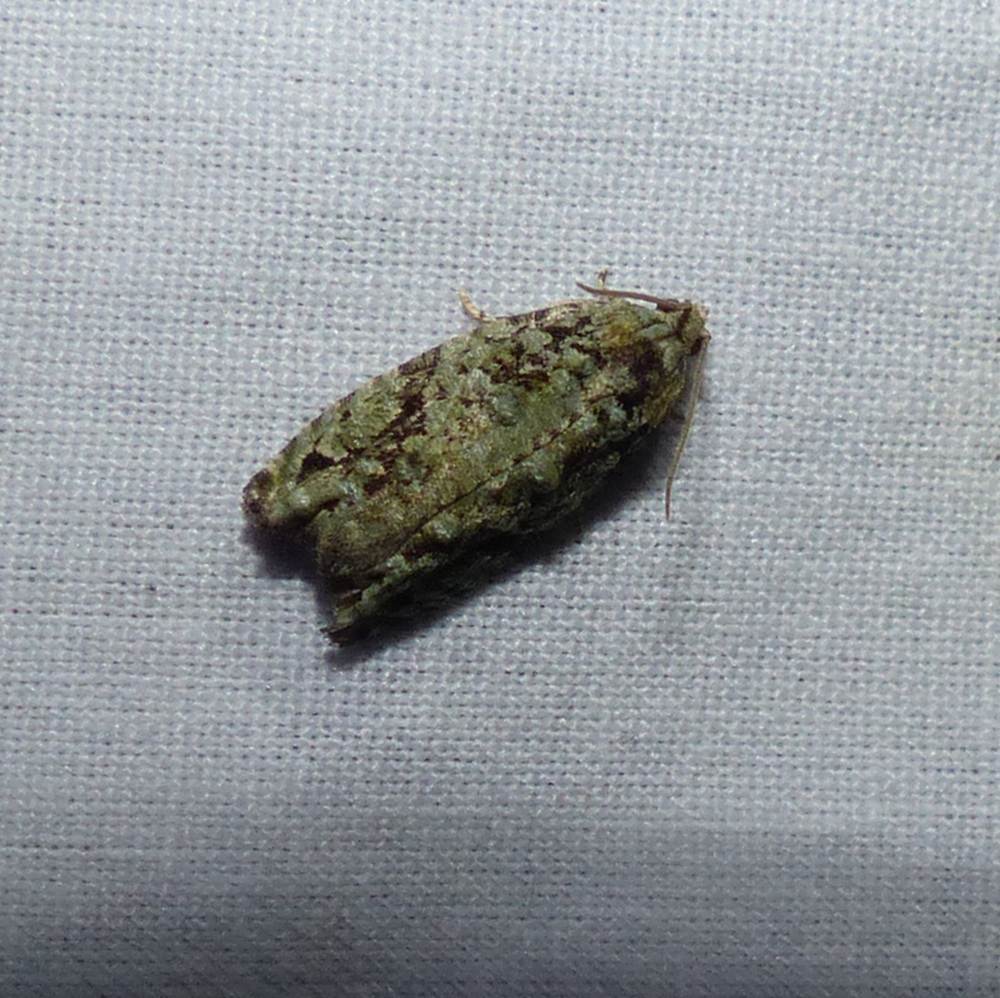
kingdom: Animalia
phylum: Arthropoda
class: Insecta
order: Lepidoptera
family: Tortricidae
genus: Proteoteras
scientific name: Proteoteras moffatiana
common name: Maple bud borer moth
